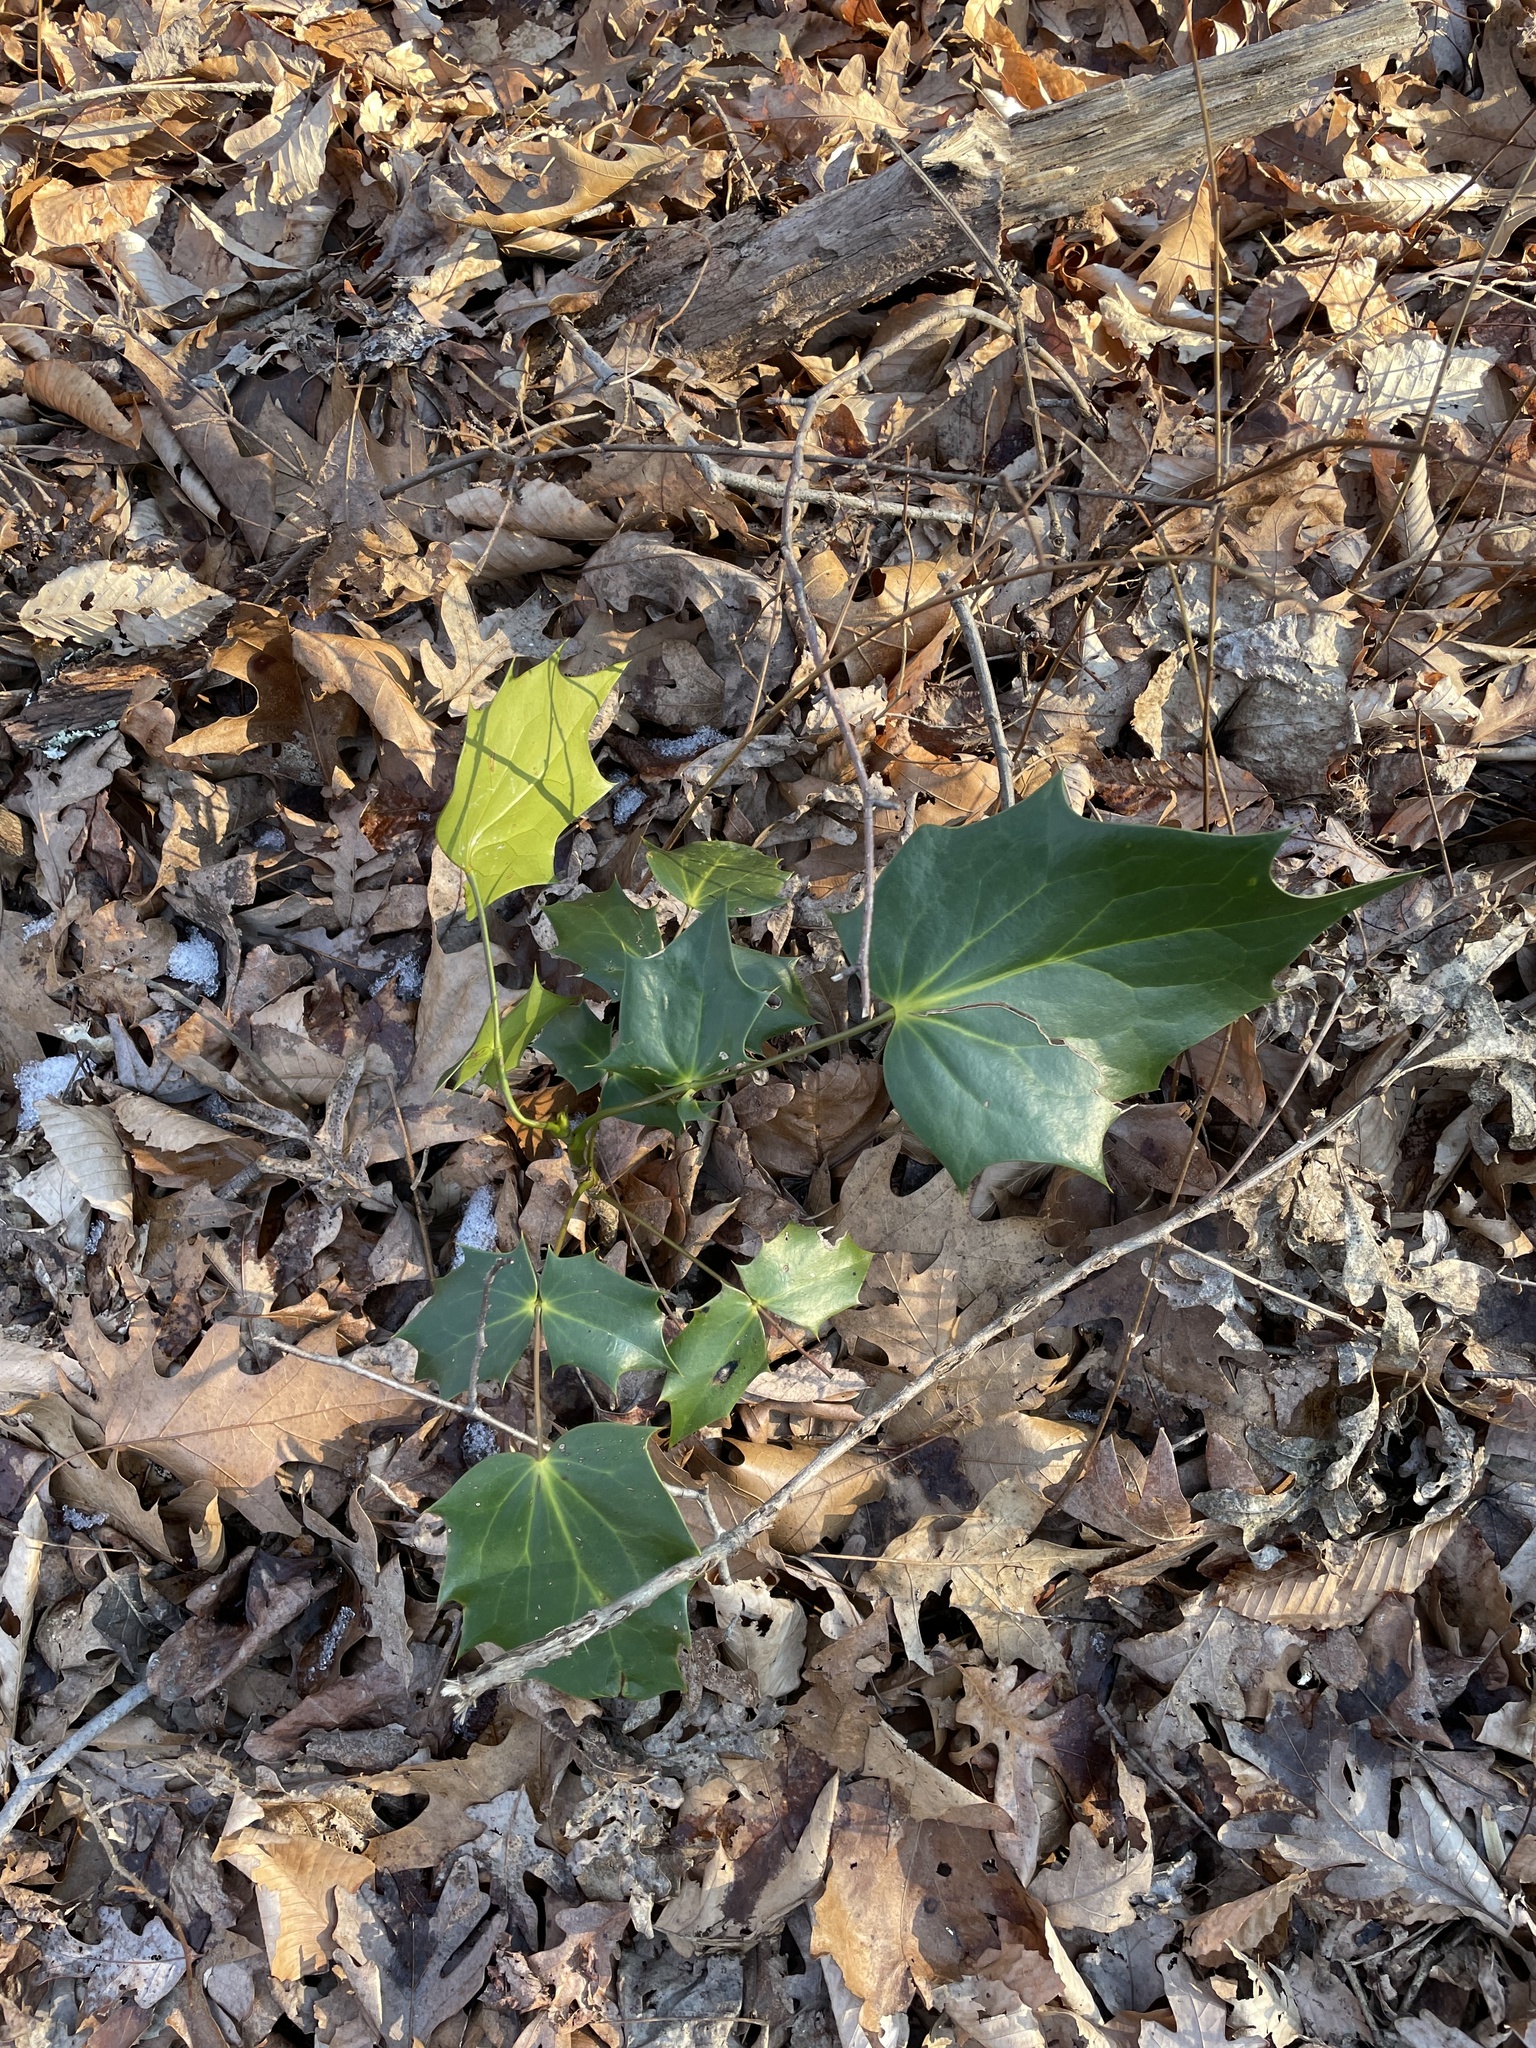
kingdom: Plantae
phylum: Tracheophyta
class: Magnoliopsida
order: Ranunculales
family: Berberidaceae
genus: Mahonia
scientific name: Mahonia bealei
